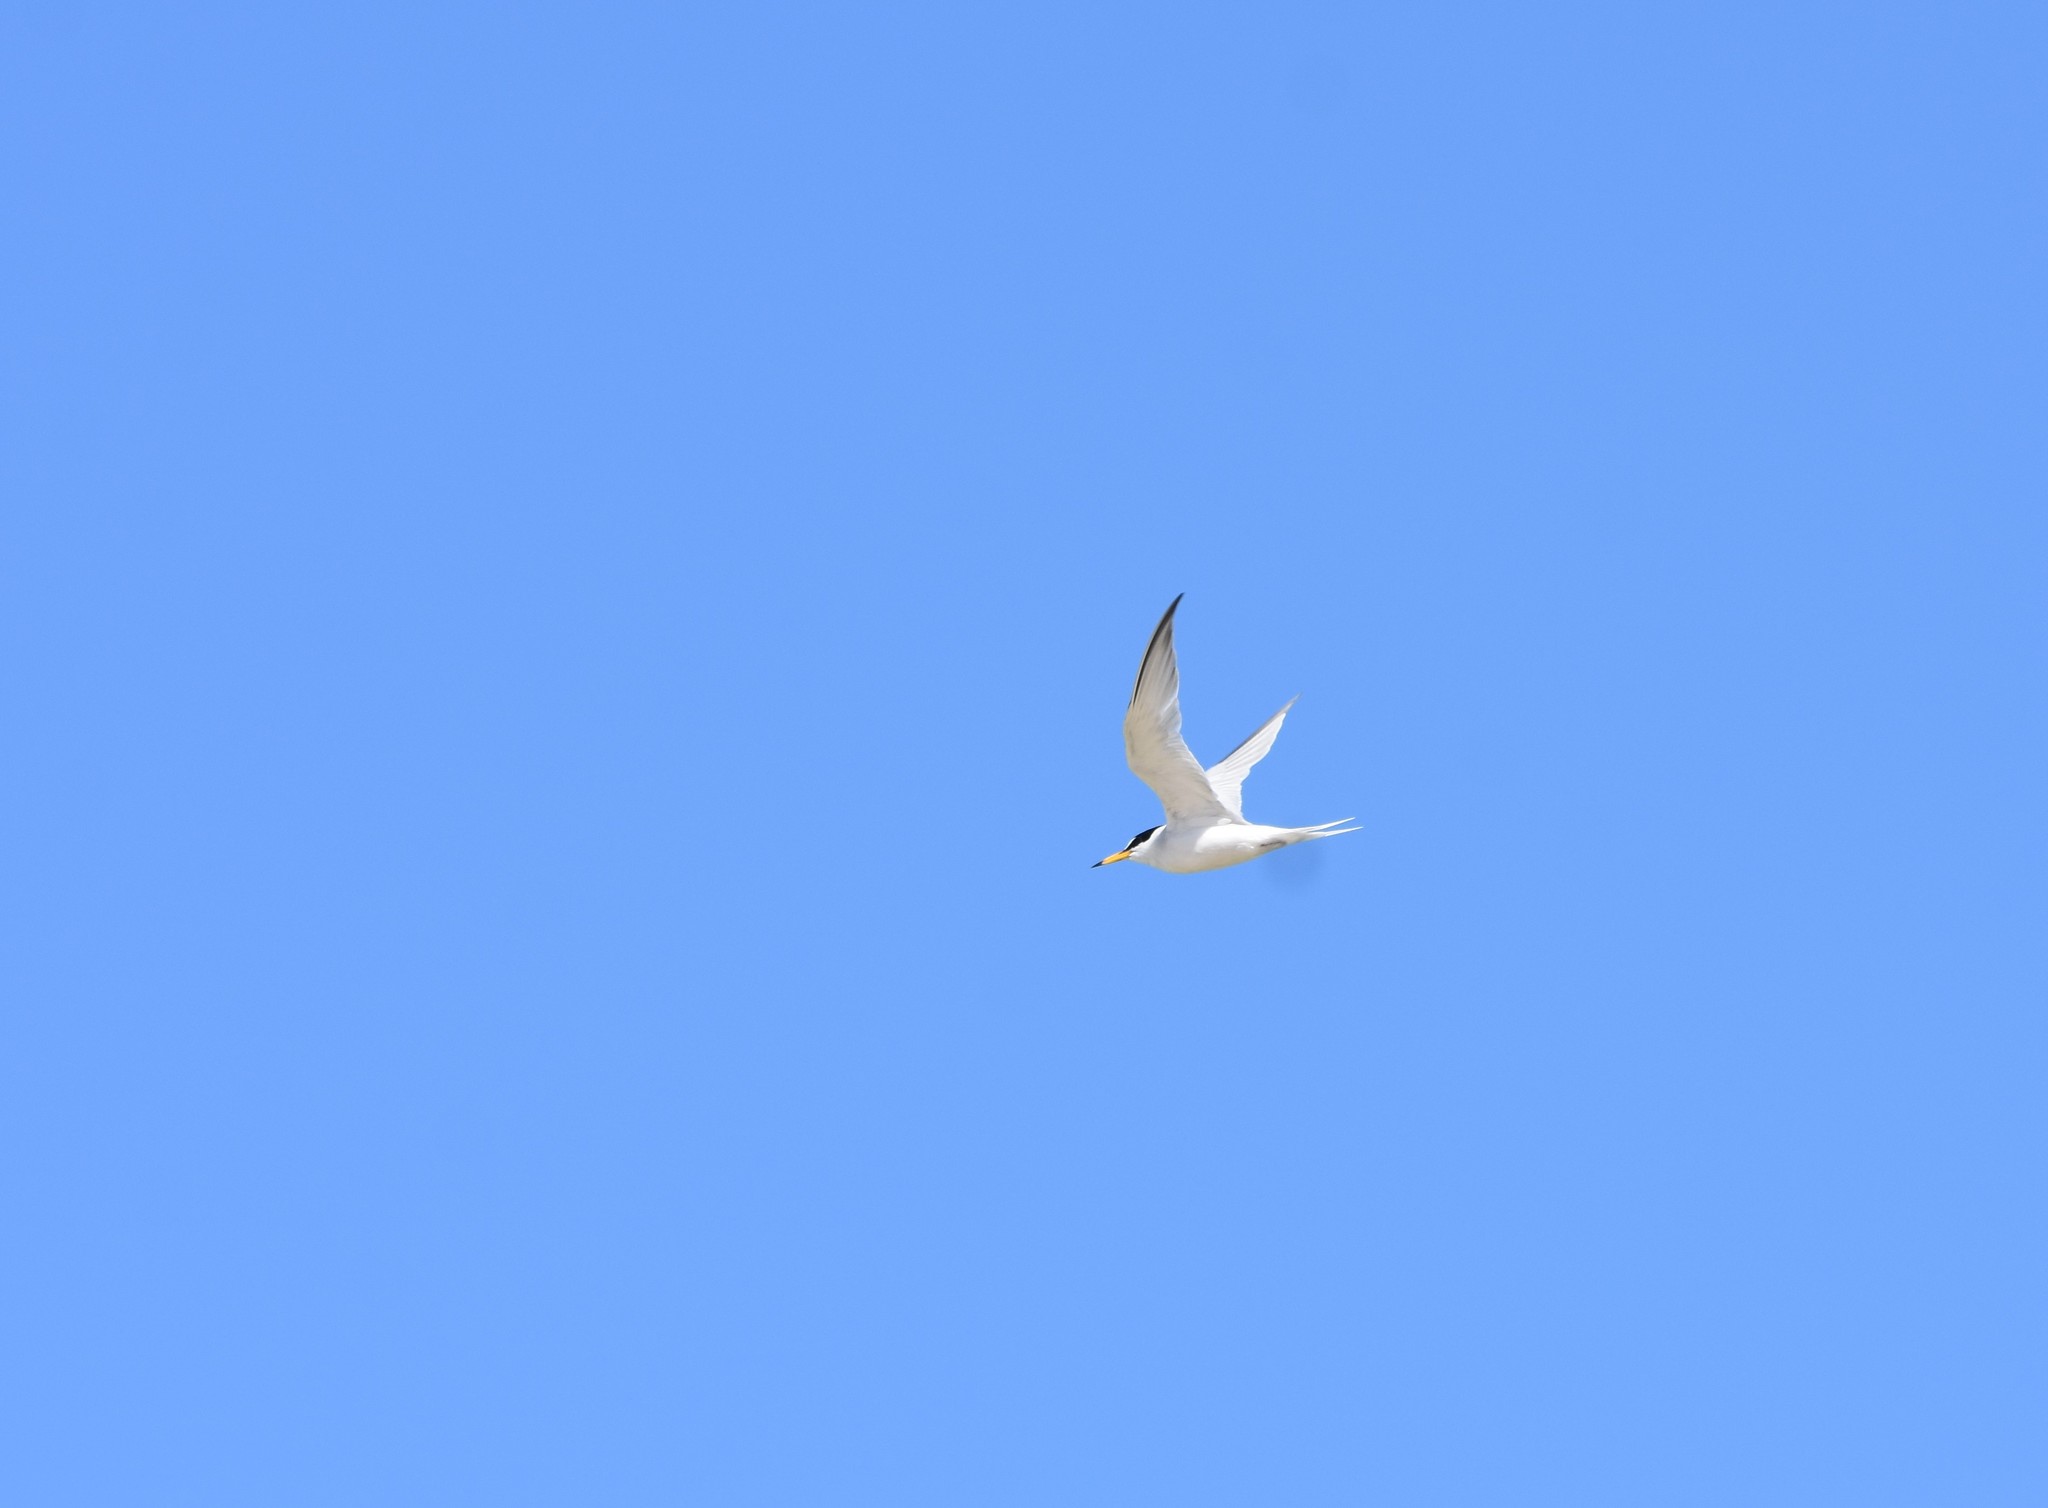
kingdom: Animalia
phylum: Chordata
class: Aves
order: Charadriiformes
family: Laridae
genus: Sternula
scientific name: Sternula albifrons
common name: Little tern
